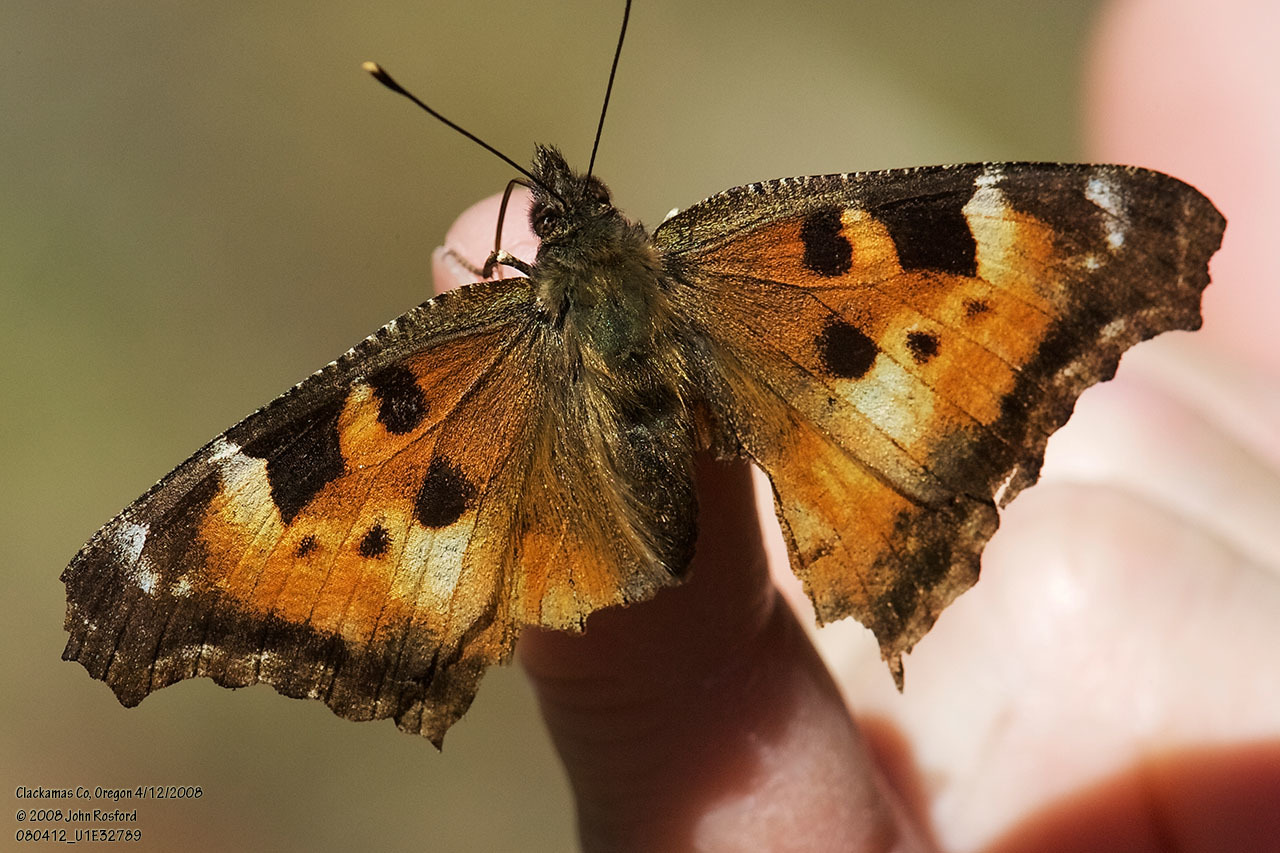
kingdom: Animalia
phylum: Arthropoda
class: Insecta
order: Lepidoptera
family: Nymphalidae
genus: Nymphalis
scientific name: Nymphalis californica
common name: California tortoiseshell
